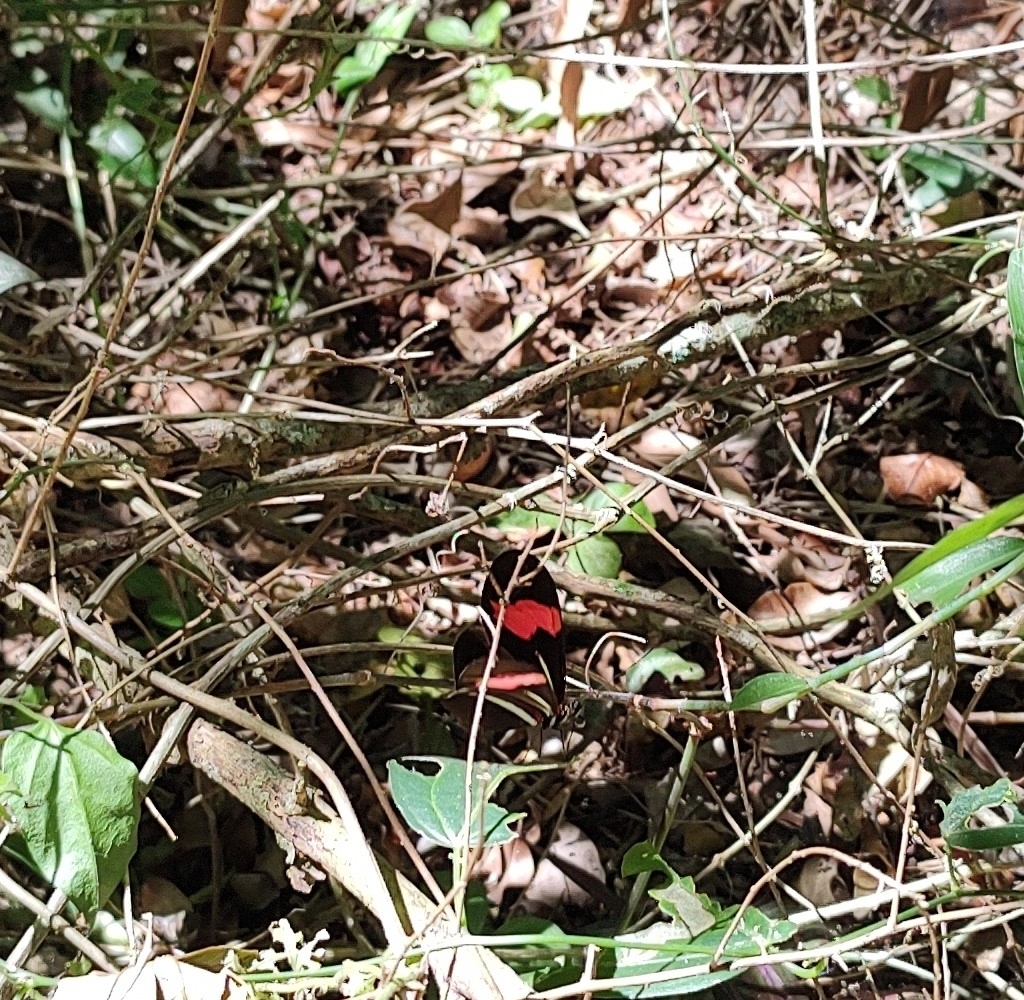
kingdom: Animalia
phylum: Arthropoda
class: Insecta
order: Lepidoptera
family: Nymphalidae
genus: Heliconius
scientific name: Heliconius erato
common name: Common patch longwing
